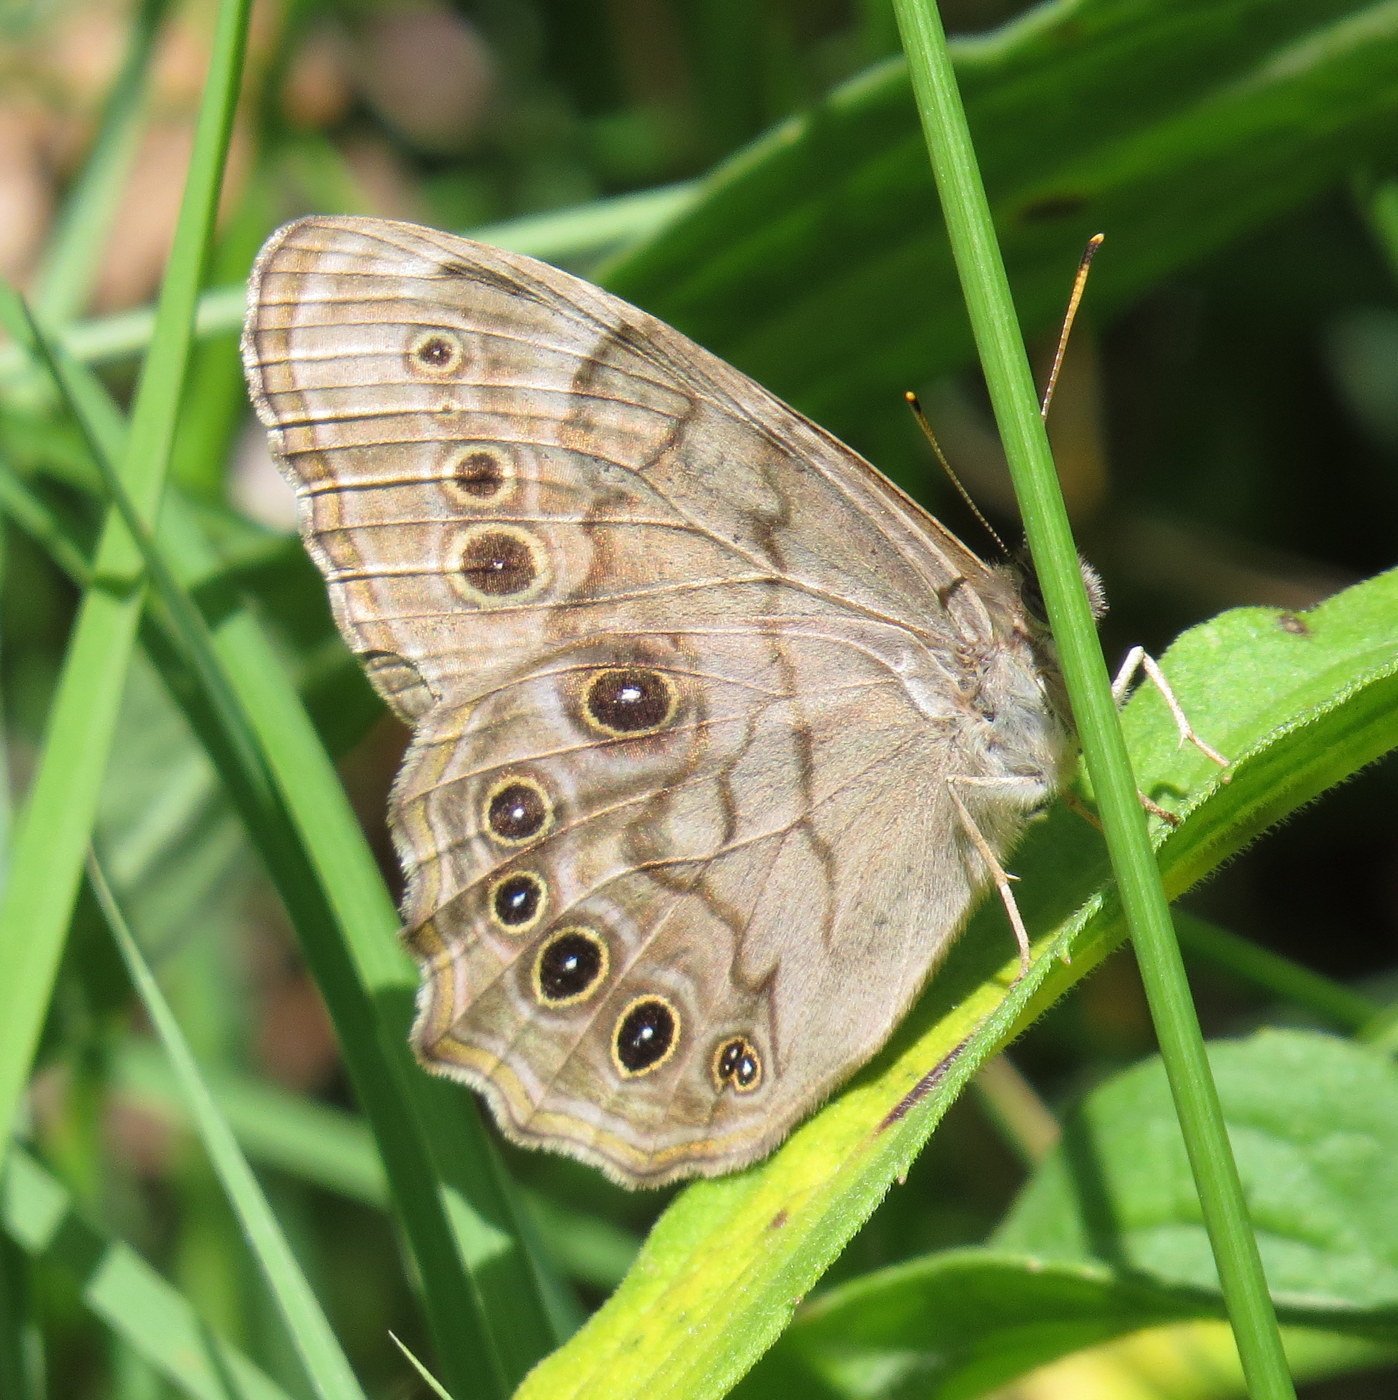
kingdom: Animalia
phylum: Arthropoda
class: Insecta
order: Lepidoptera
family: Nymphalidae
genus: Lethe
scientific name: Lethe anthedon
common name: Northern pearly-eye
